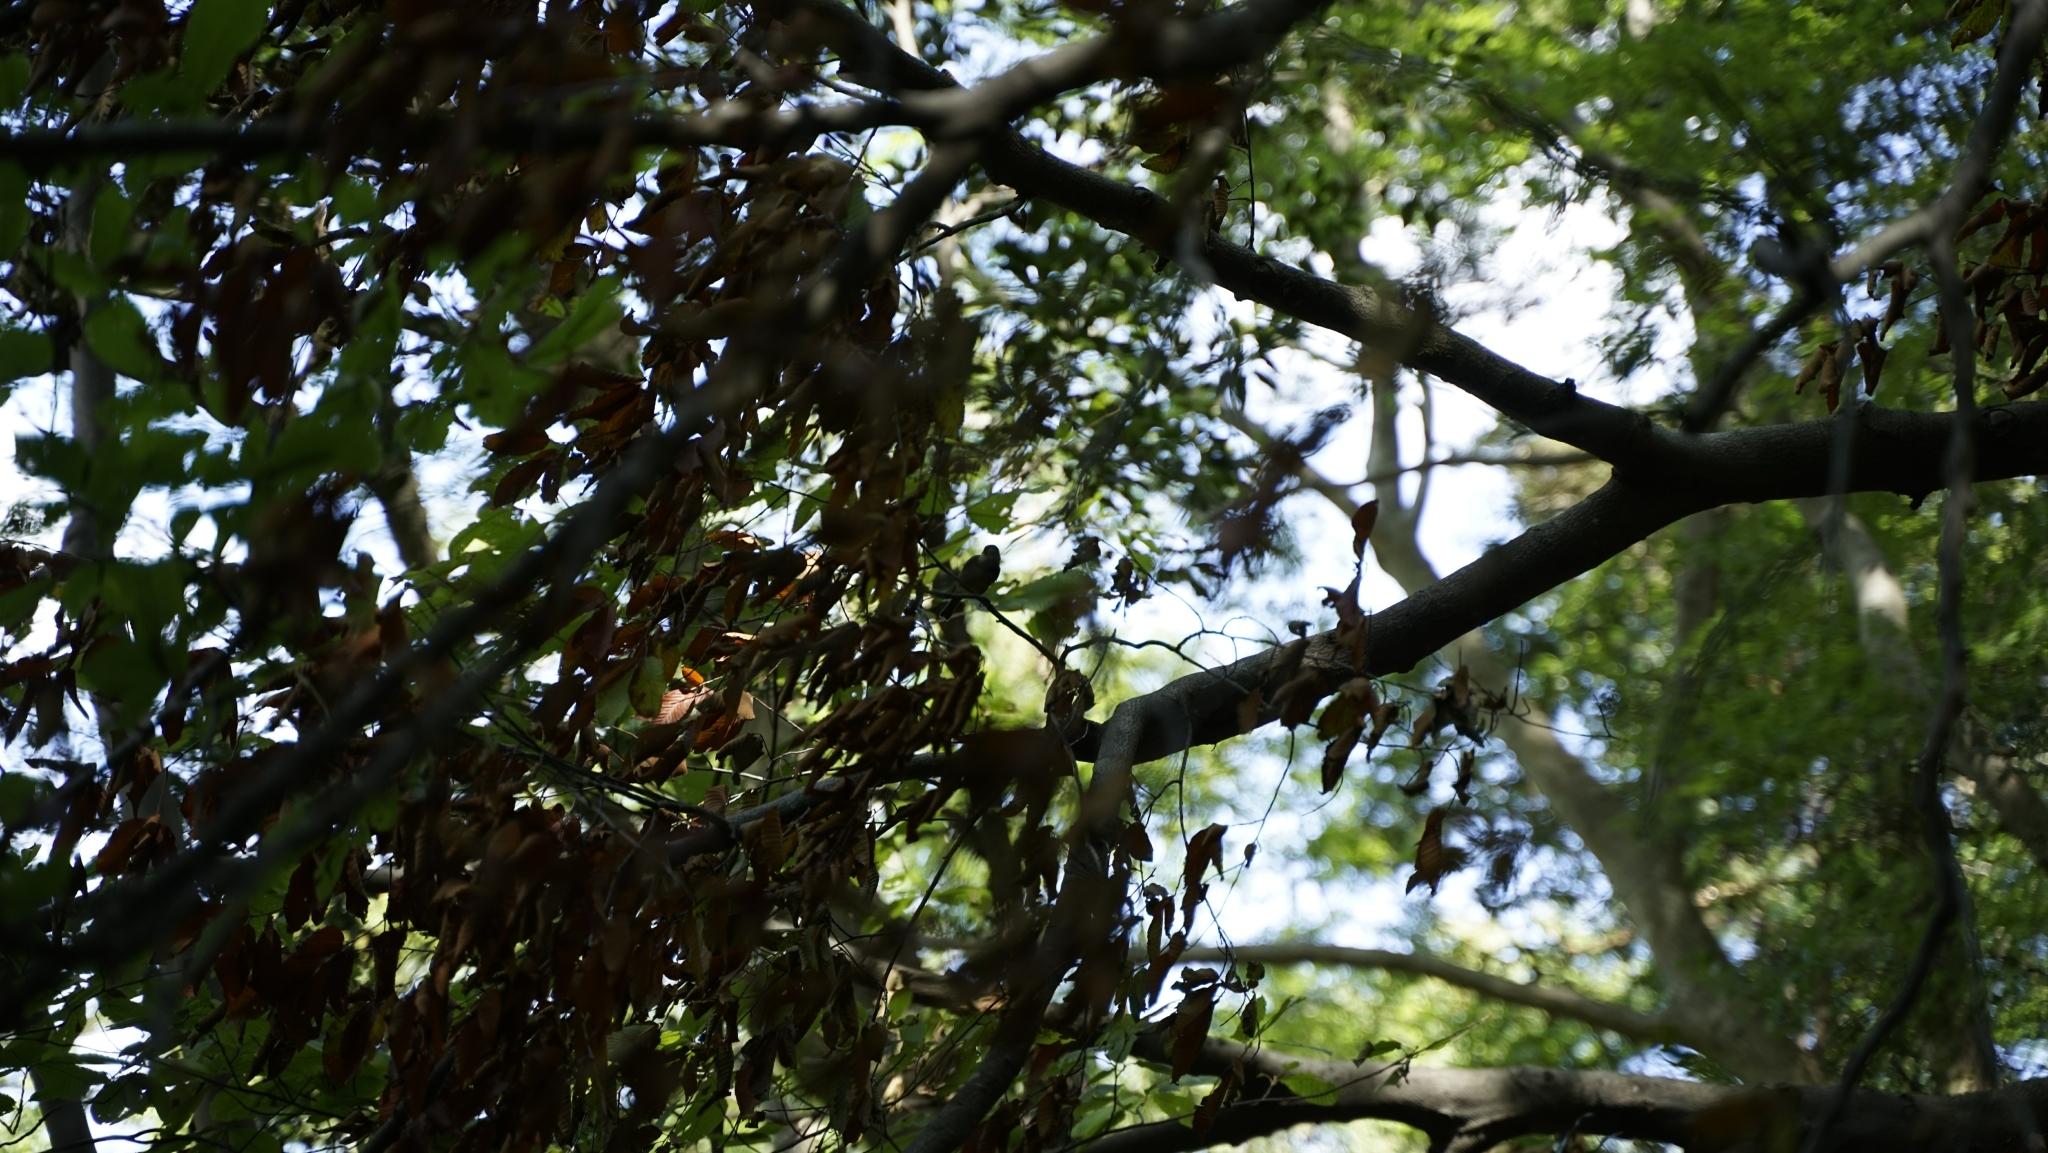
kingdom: Animalia
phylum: Chordata
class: Aves
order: Passeriformes
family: Paridae
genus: Poecile
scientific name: Poecile varius
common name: Varied tit
